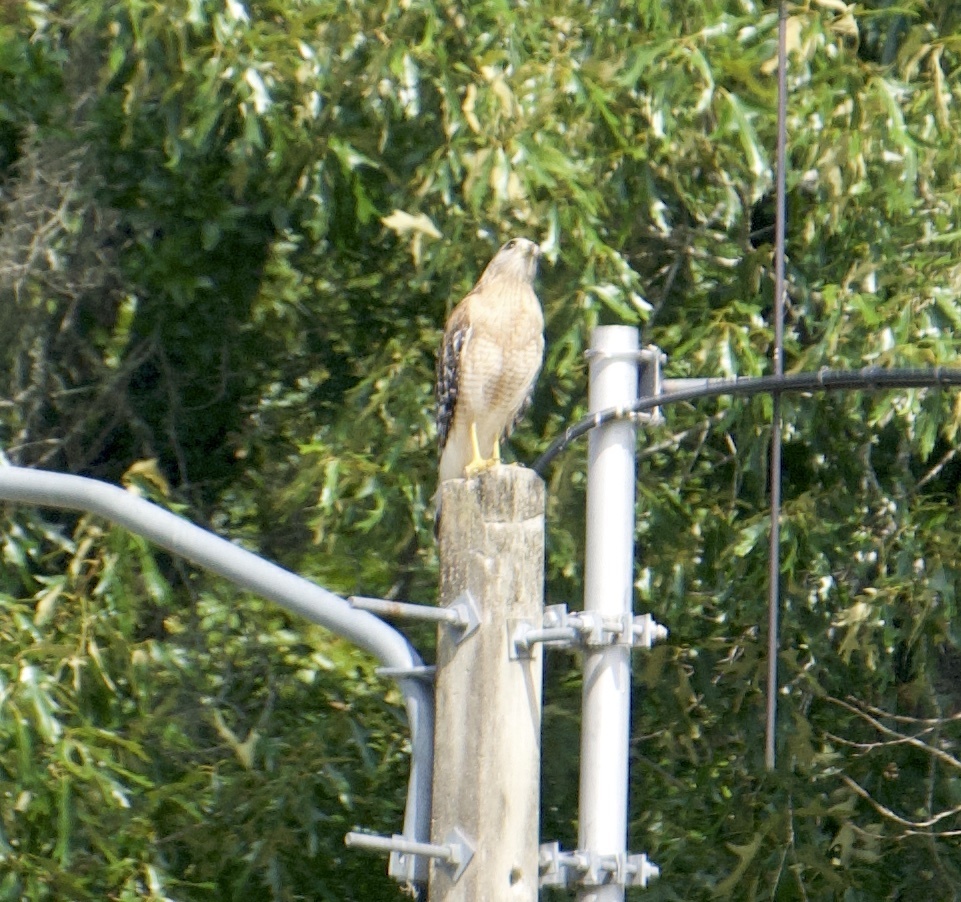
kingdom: Animalia
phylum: Chordata
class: Aves
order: Accipitriformes
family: Accipitridae
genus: Buteo
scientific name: Buteo lineatus
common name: Red-shouldered hawk
